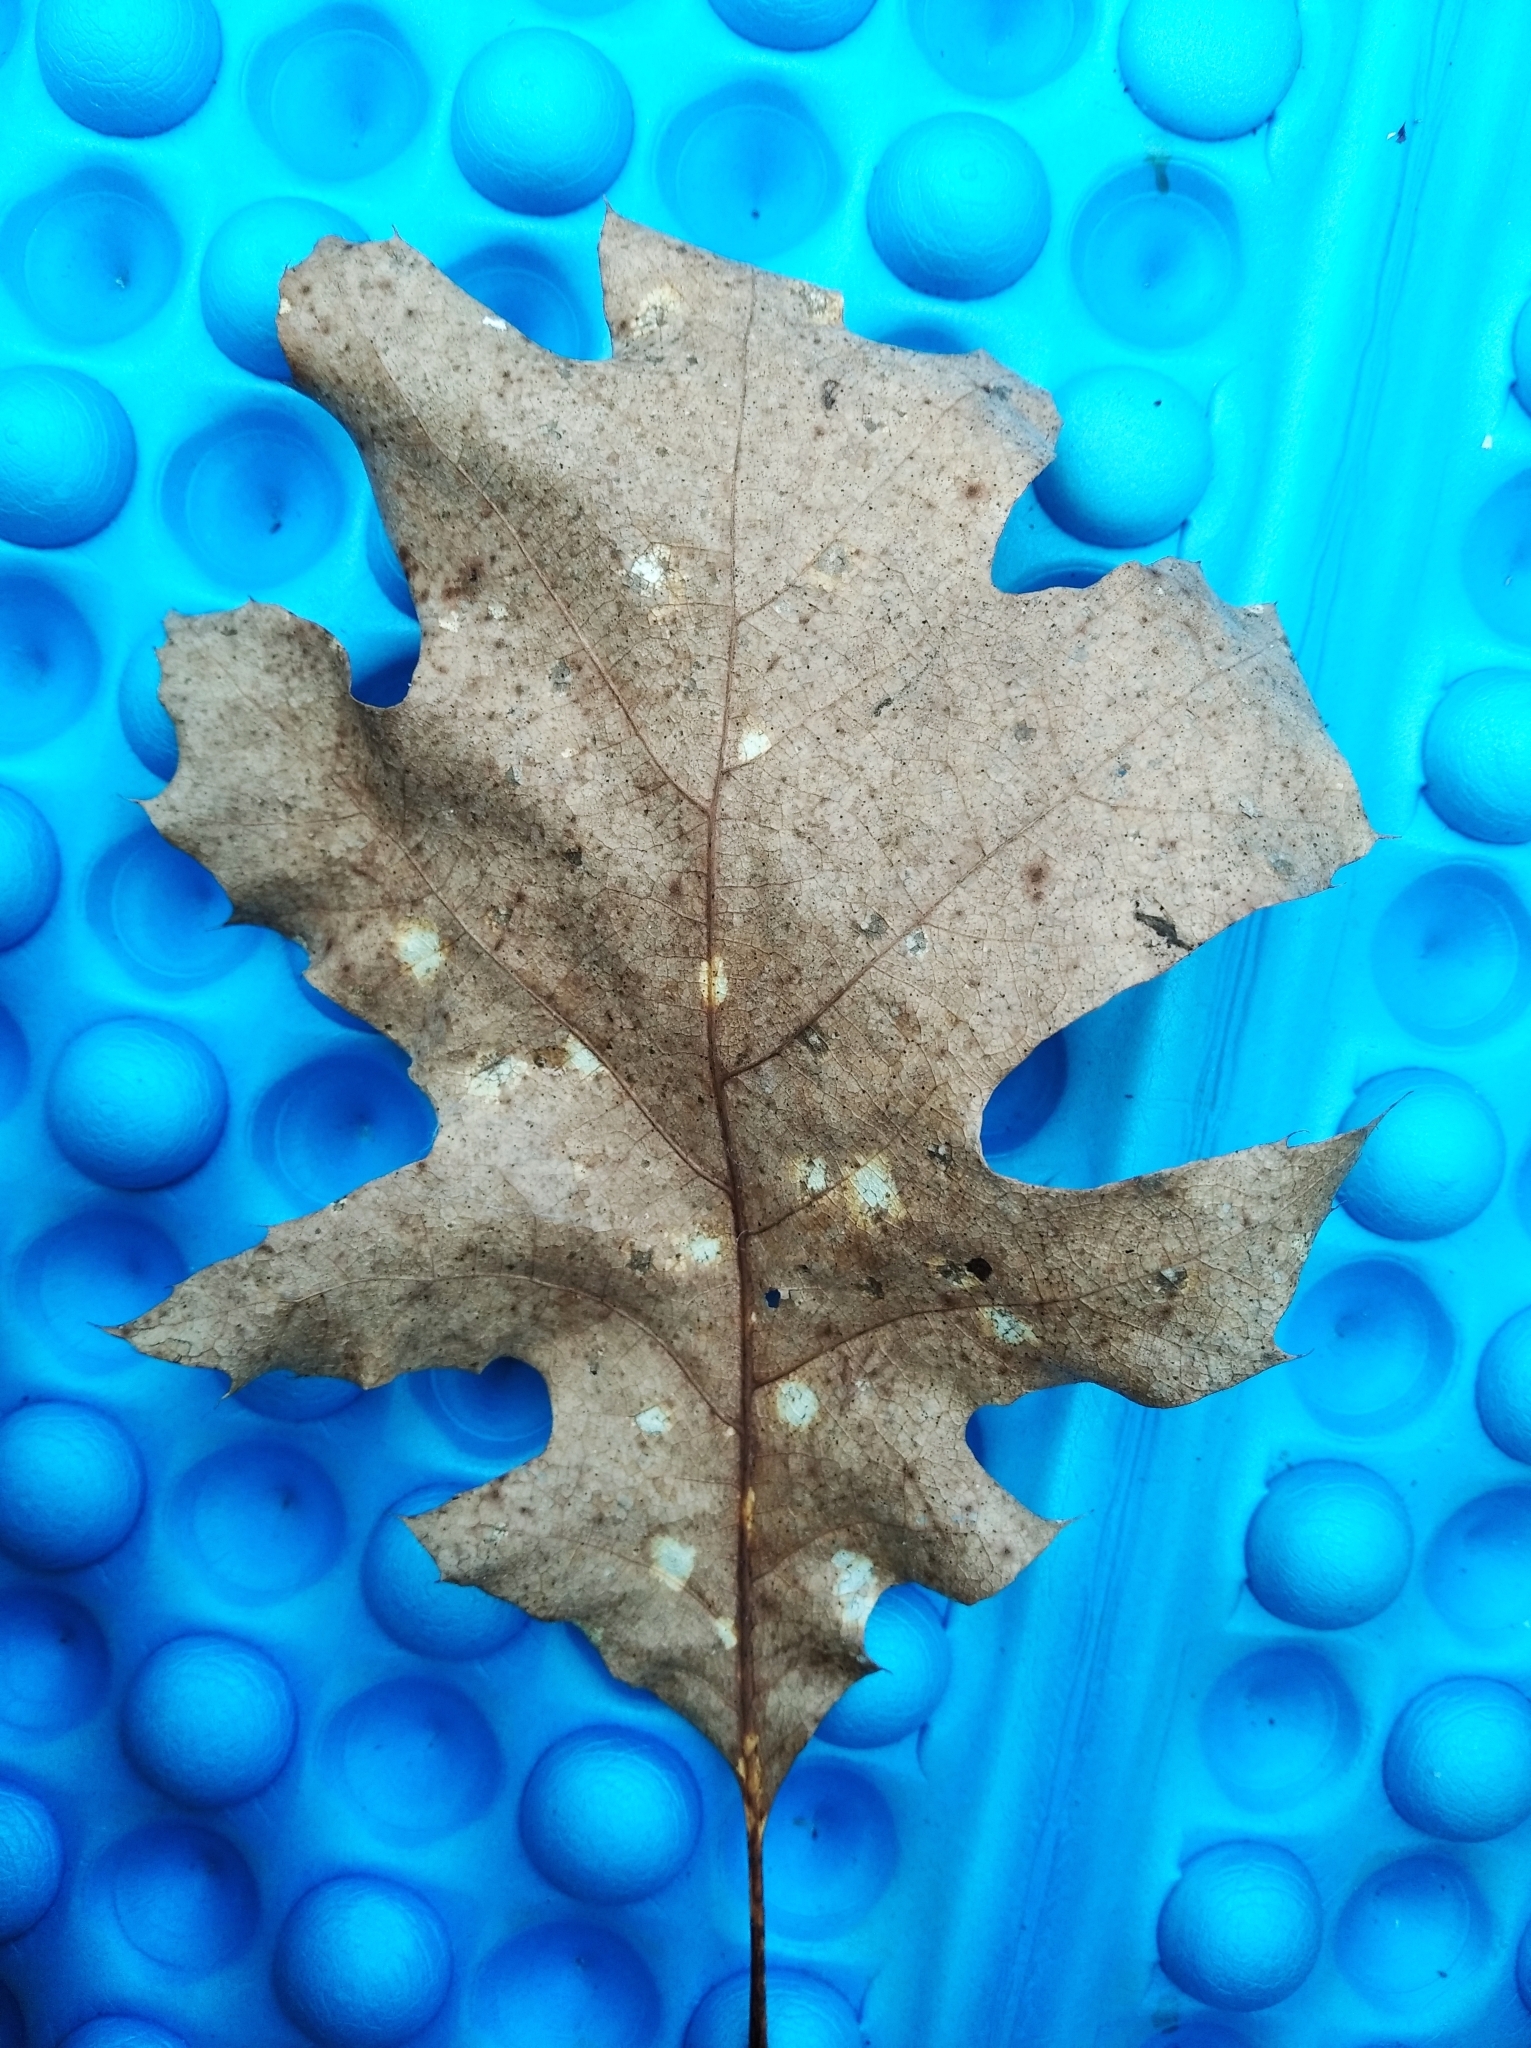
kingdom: Plantae
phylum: Tracheophyta
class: Magnoliopsida
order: Fagales
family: Fagaceae
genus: Quercus
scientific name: Quercus rubra
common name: Red oak
